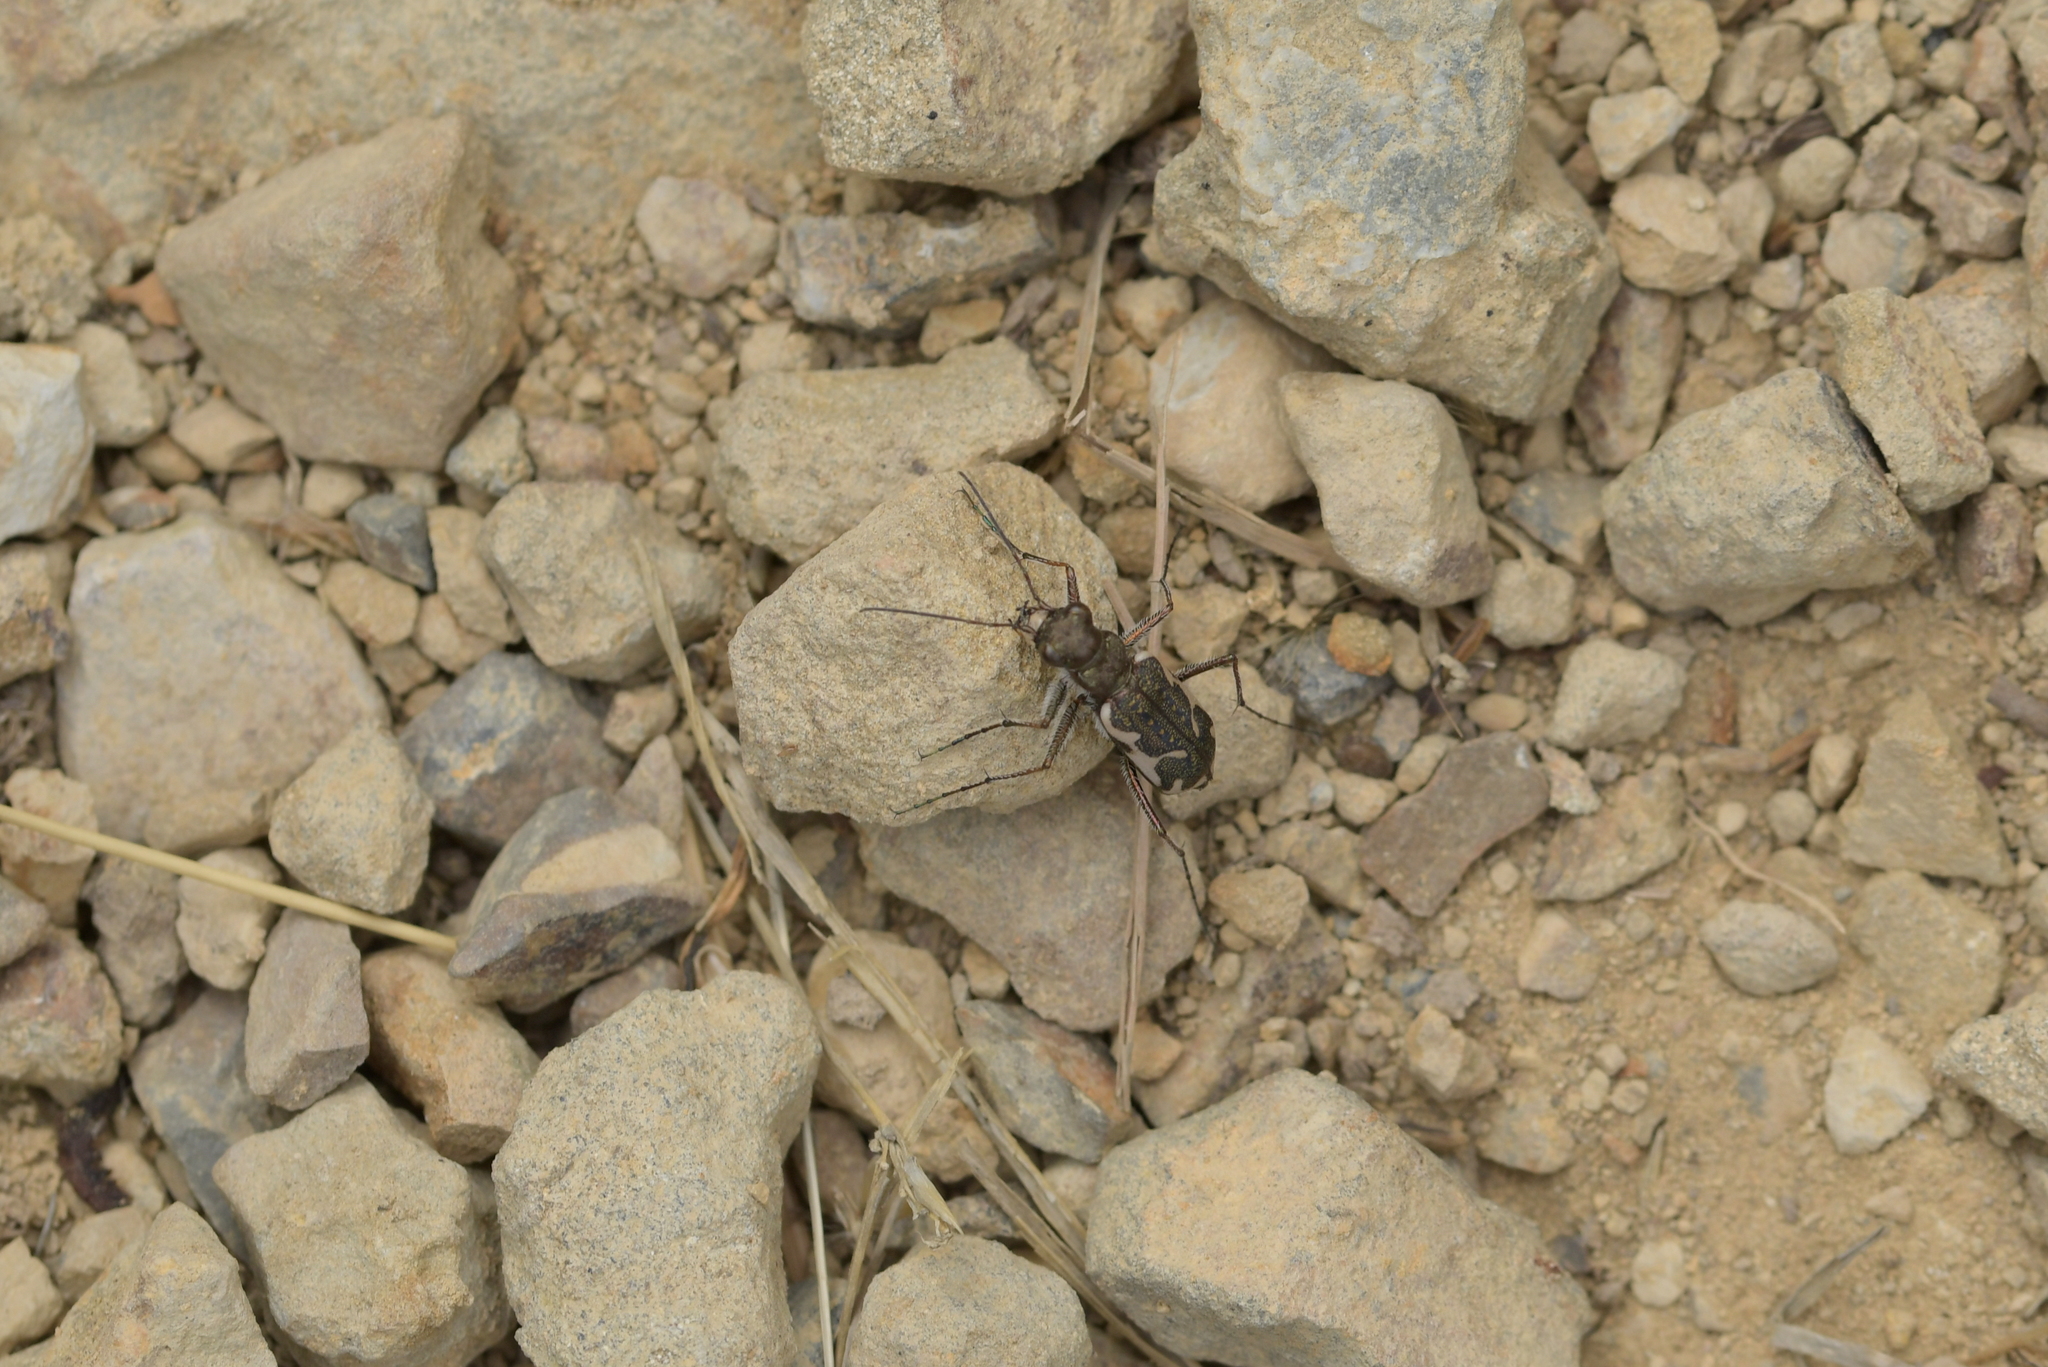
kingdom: Animalia
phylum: Arthropoda
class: Insecta
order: Coleoptera
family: Carabidae
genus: Neocicindela
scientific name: Neocicindela tuberculata
